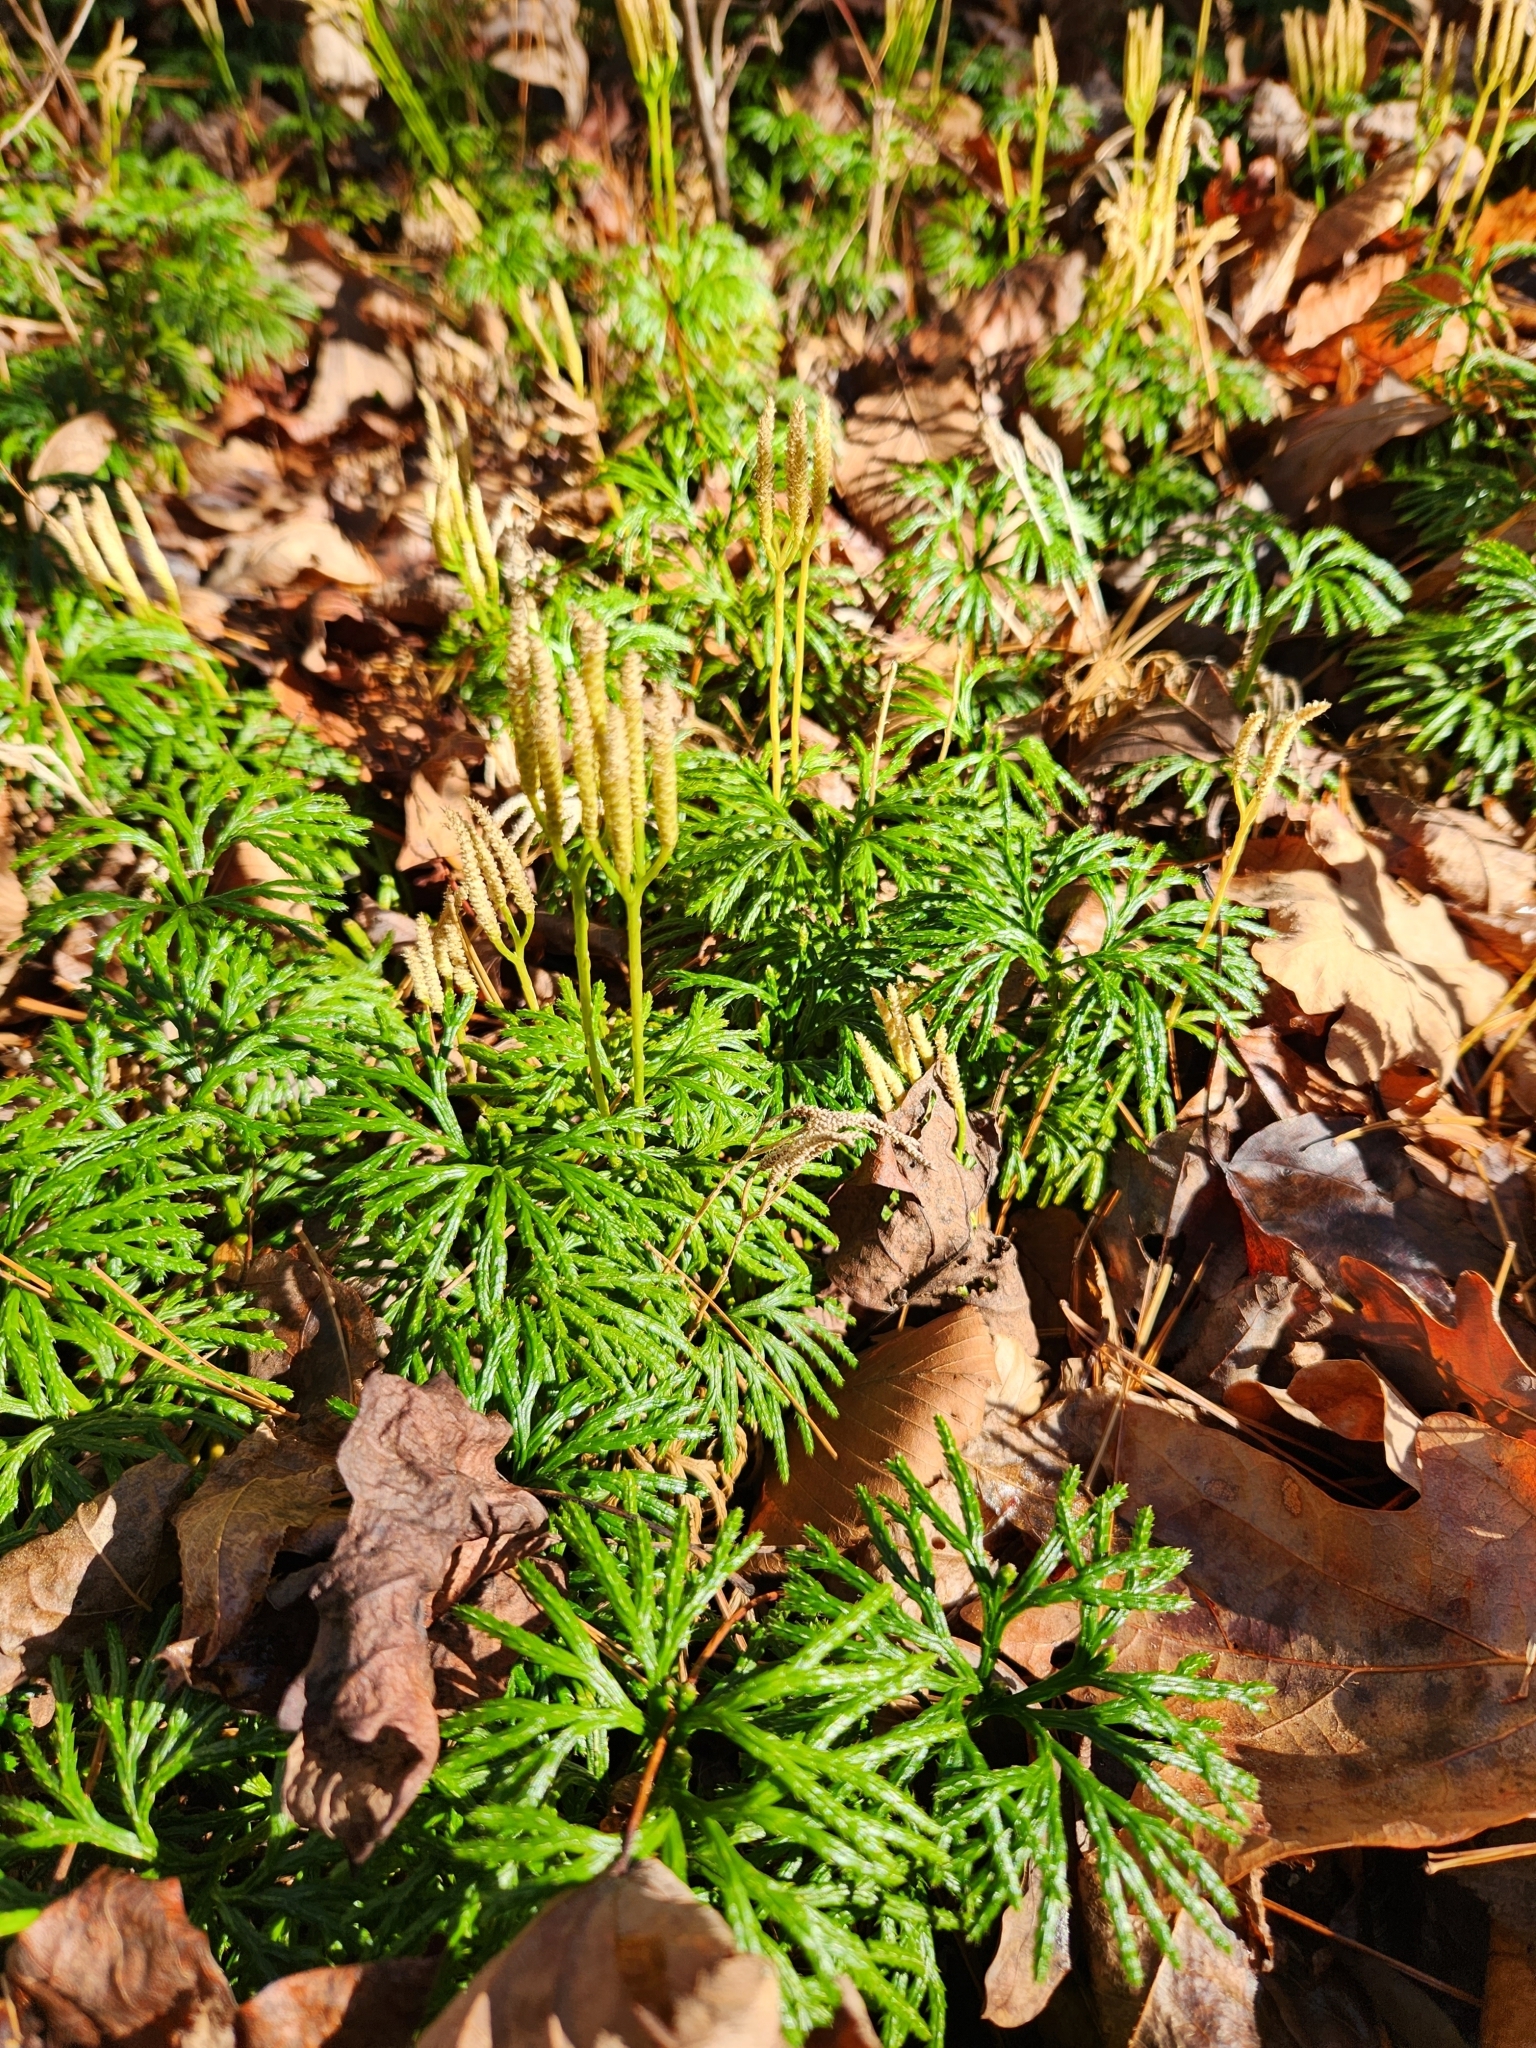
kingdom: Plantae
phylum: Tracheophyta
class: Lycopodiopsida
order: Lycopodiales
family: Lycopodiaceae
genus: Diphasiastrum
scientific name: Diphasiastrum digitatum
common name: Southern running-pine
